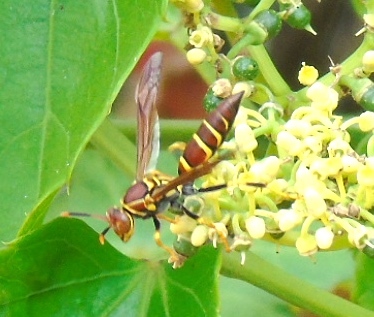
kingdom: Animalia
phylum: Arthropoda
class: Insecta
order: Hymenoptera
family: Eumenidae
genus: Polistes
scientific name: Polistes instabilis
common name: Unstable paper wasp
